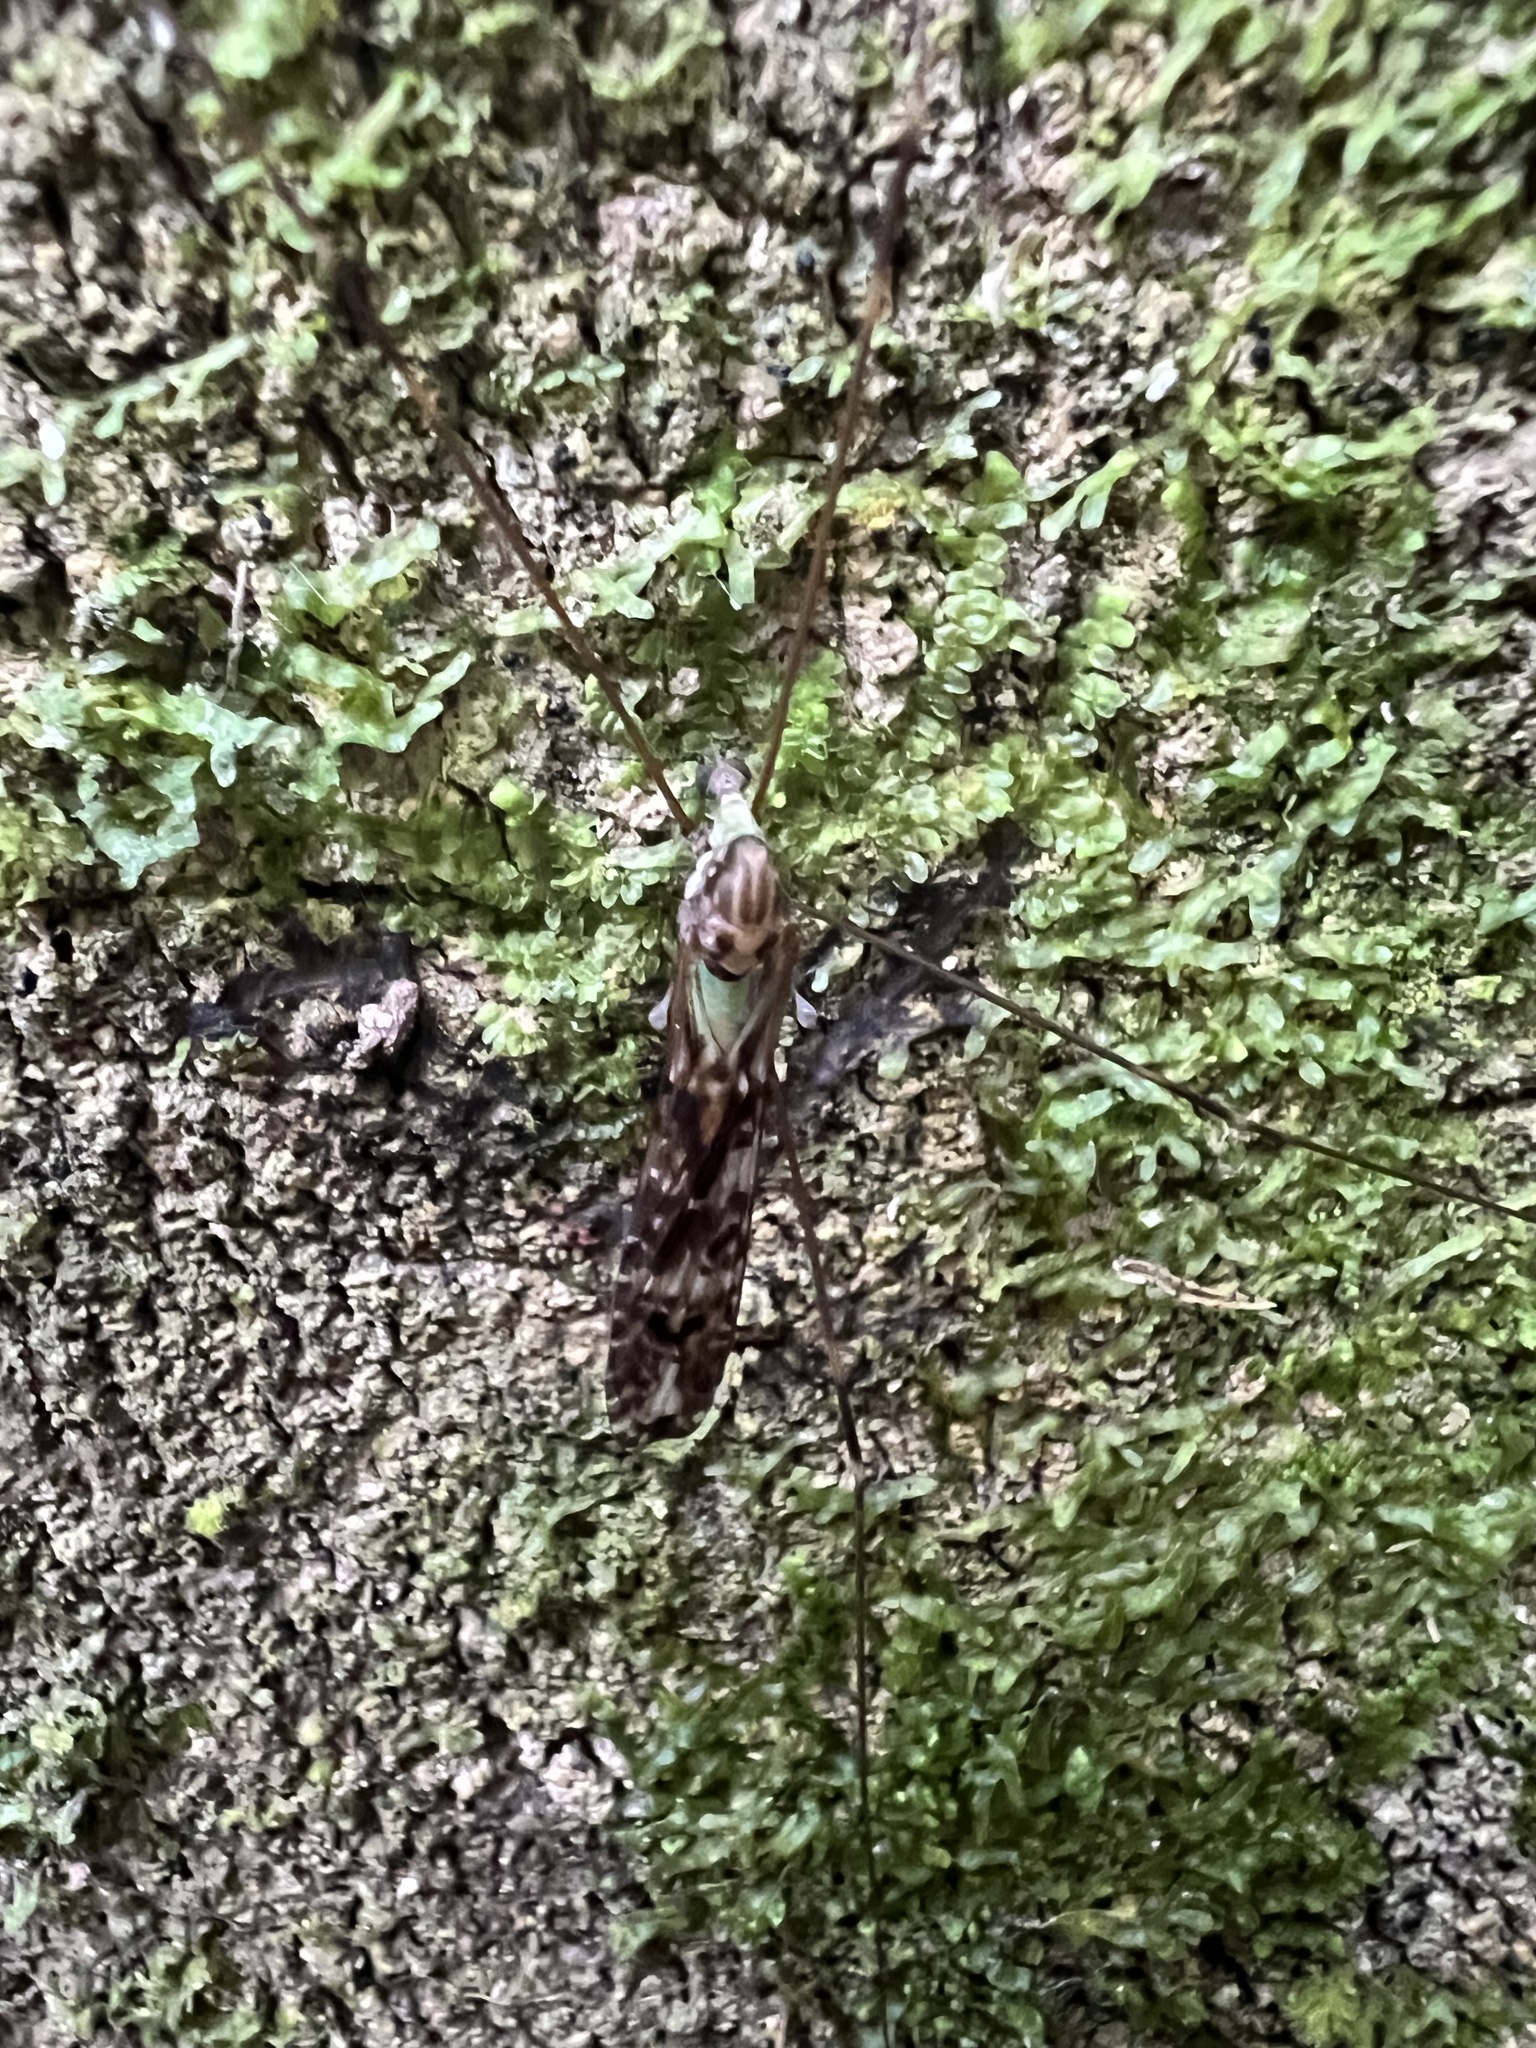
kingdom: Animalia
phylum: Arthropoda
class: Insecta
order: Diptera
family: Limoniidae
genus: Discobola
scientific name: Discobola dohrni
